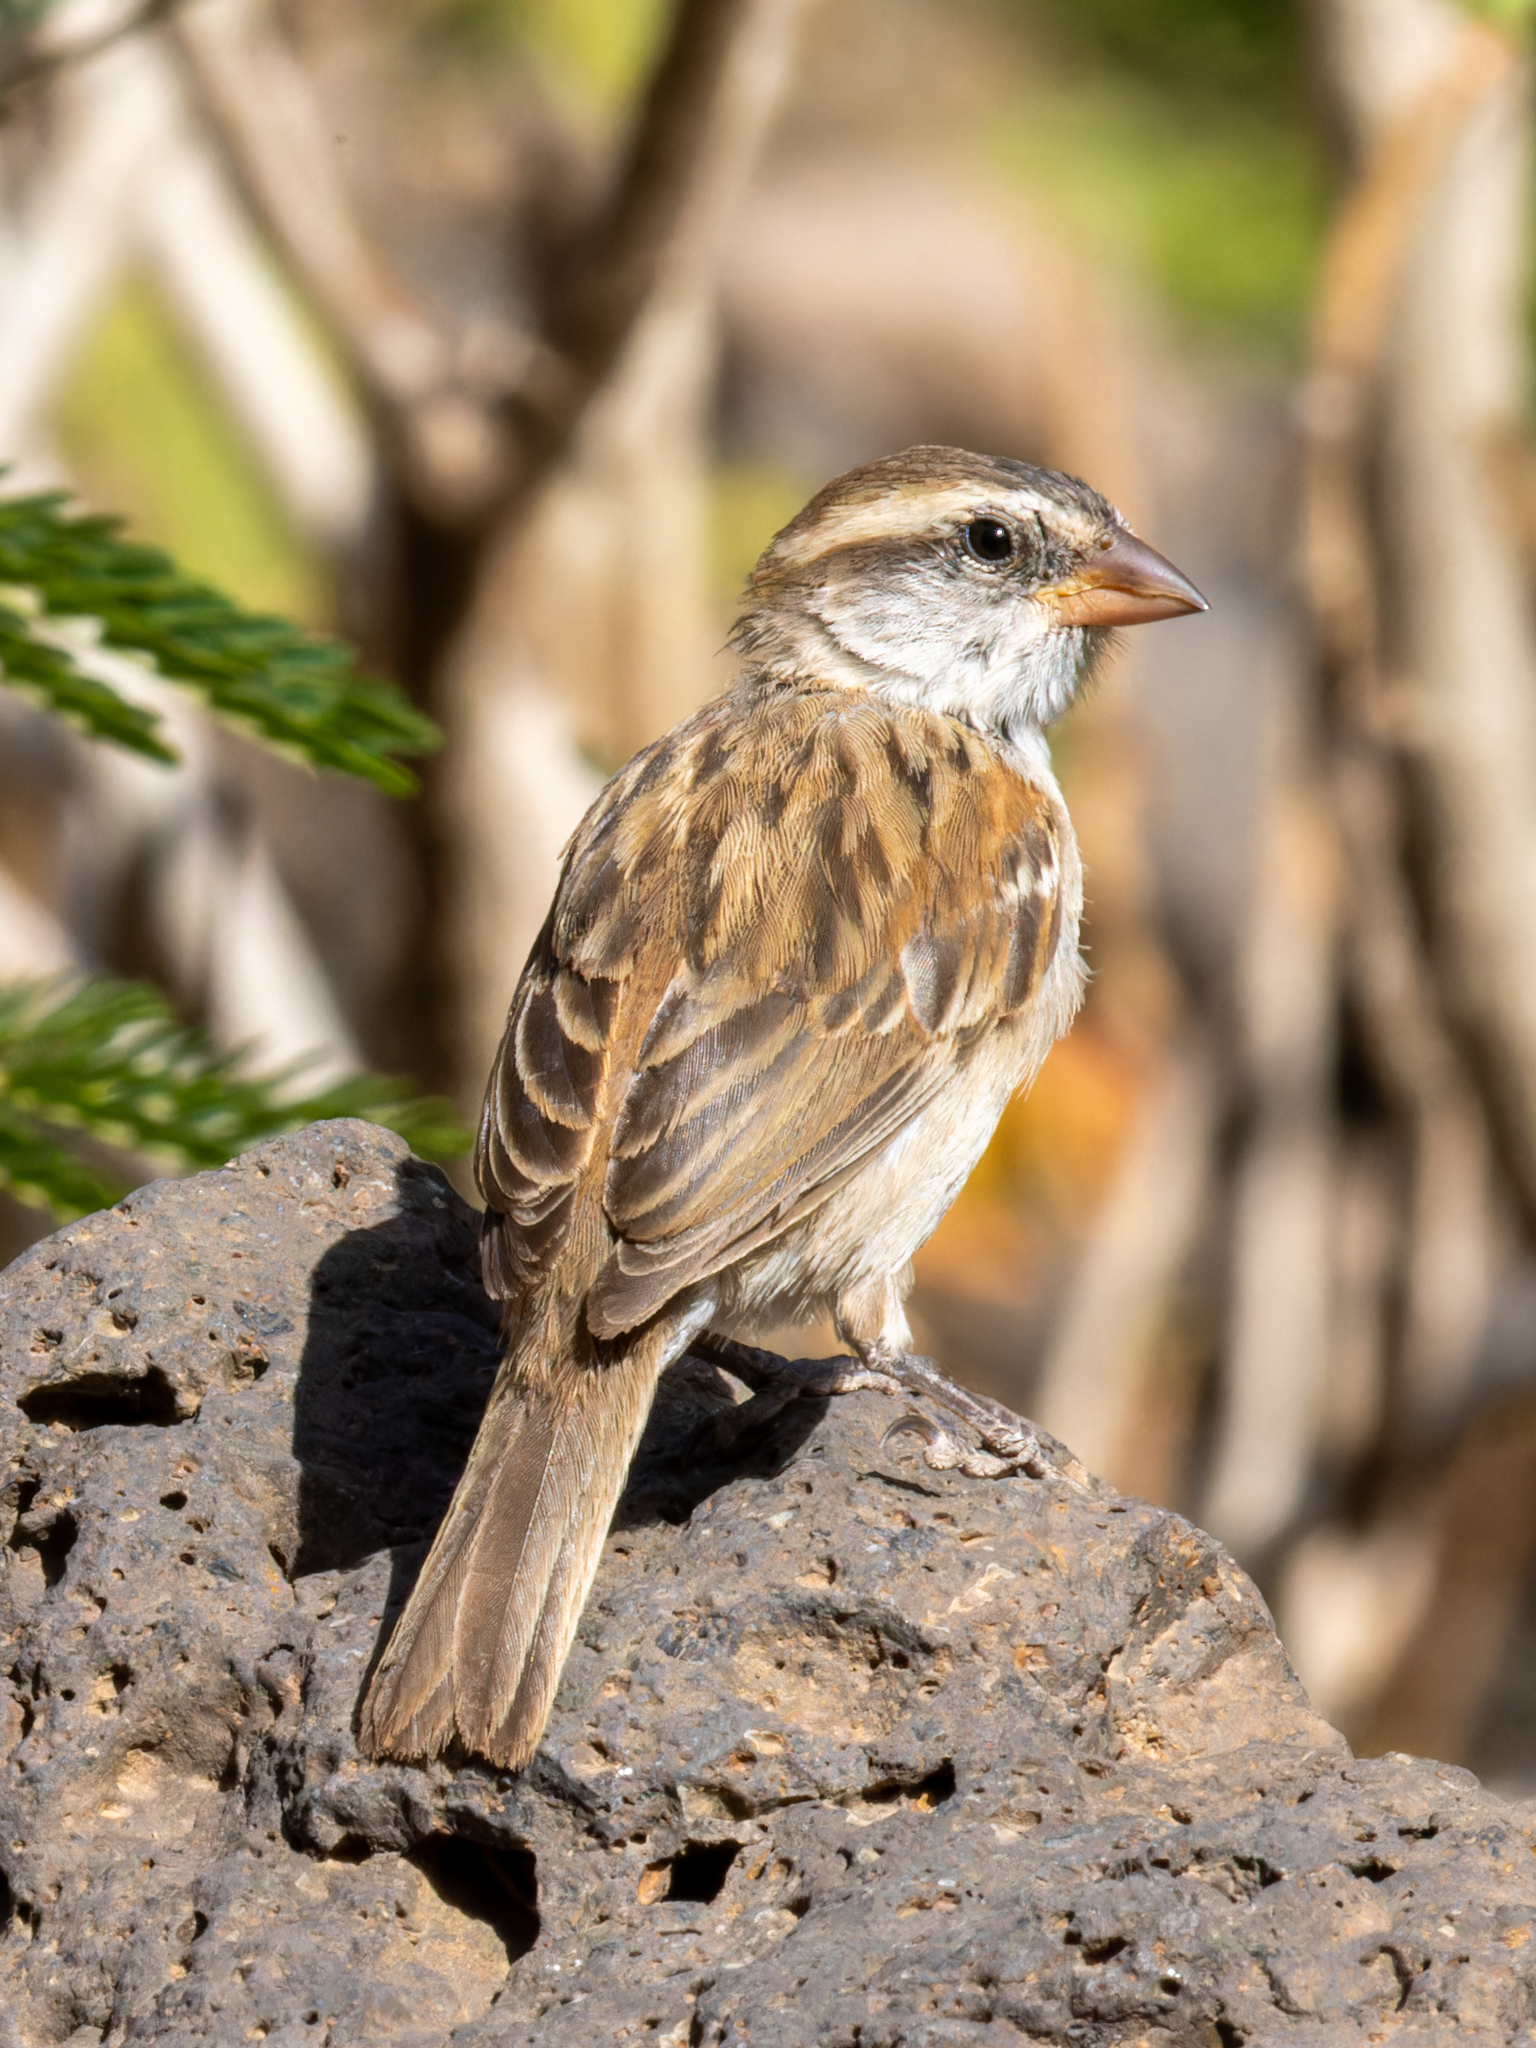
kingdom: Animalia
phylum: Chordata
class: Aves
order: Passeriformes
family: Passeridae
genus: Passer
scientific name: Passer iagoensis
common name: Iago sparrow
